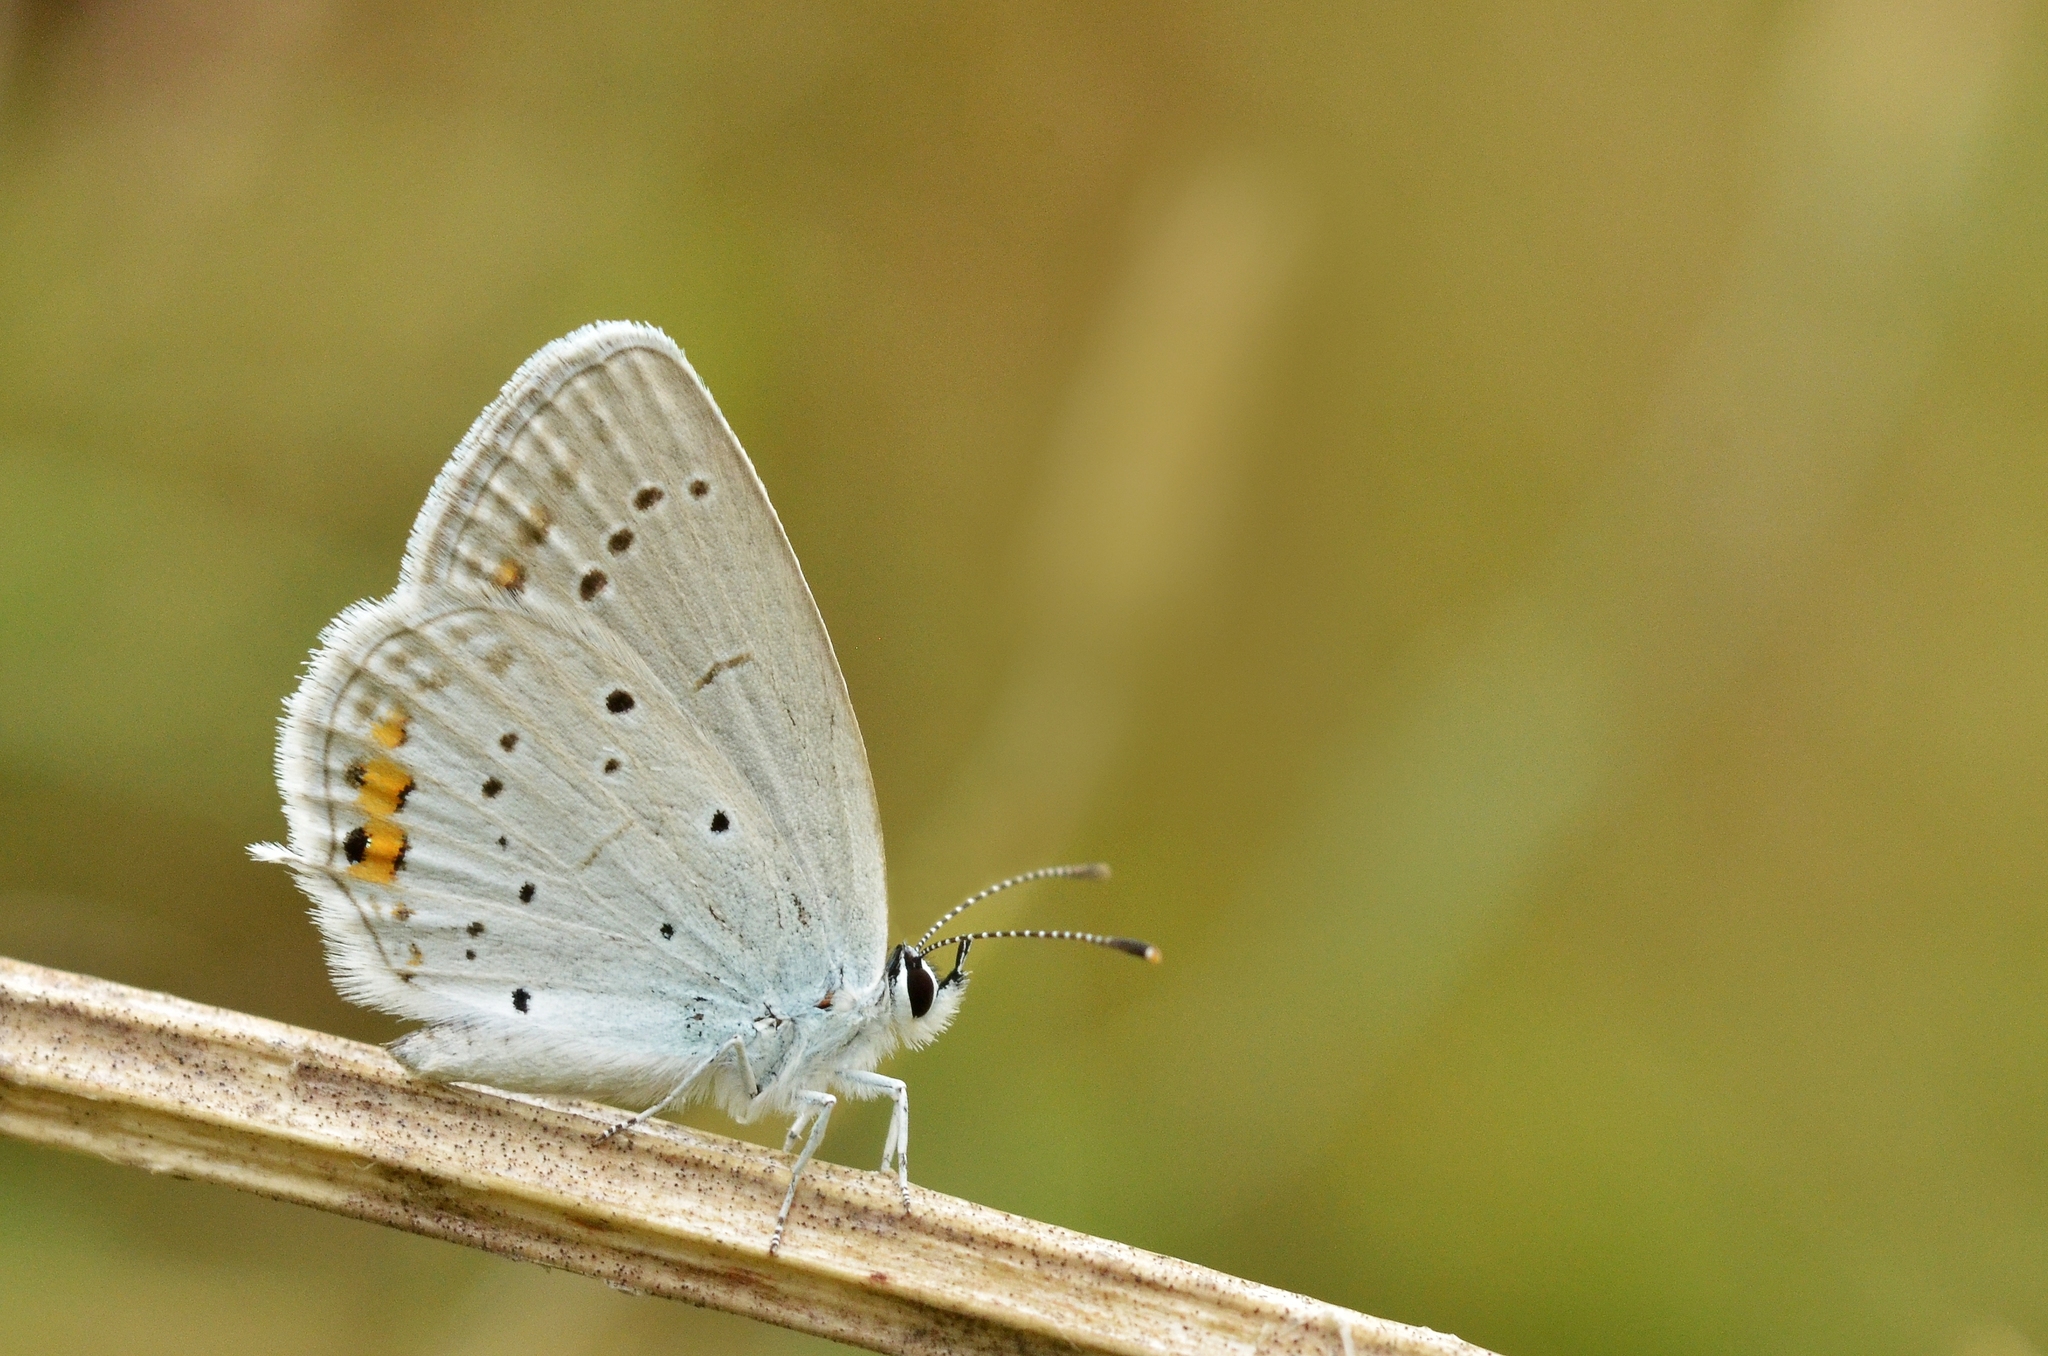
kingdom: Animalia
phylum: Arthropoda
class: Insecta
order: Lepidoptera
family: Lycaenidae
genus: Elkalyce
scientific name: Elkalyce argiades
